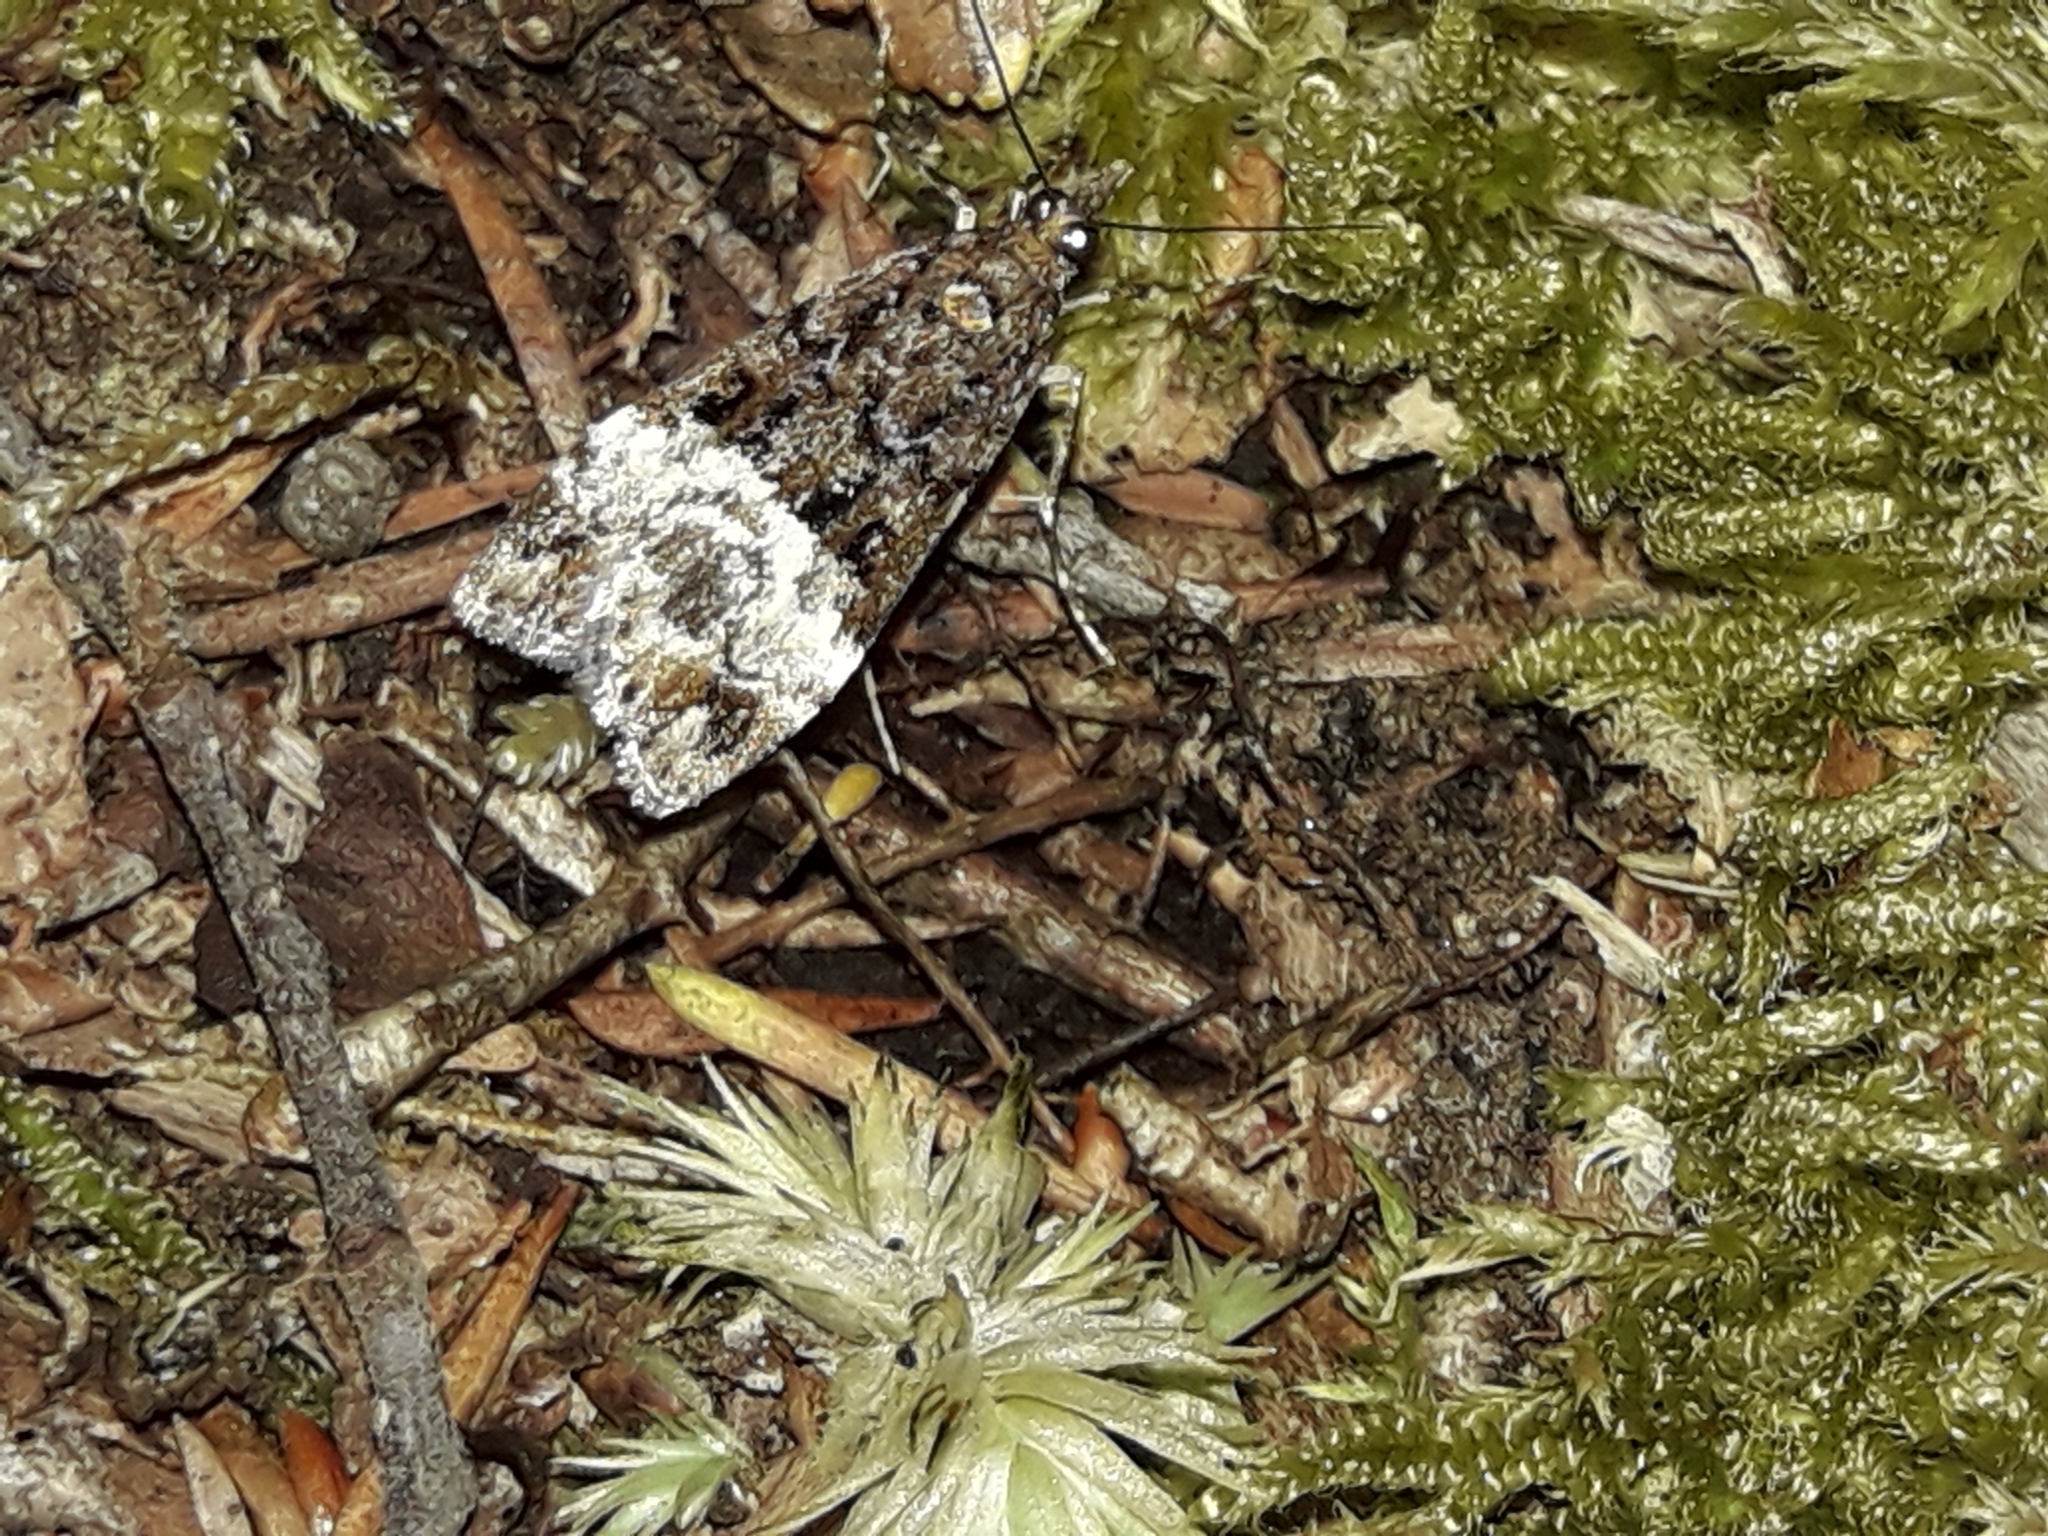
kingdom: Animalia
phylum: Arthropoda
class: Insecta
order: Lepidoptera
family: Crambidae
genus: Scoparia
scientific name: Scoparia minusculalis
